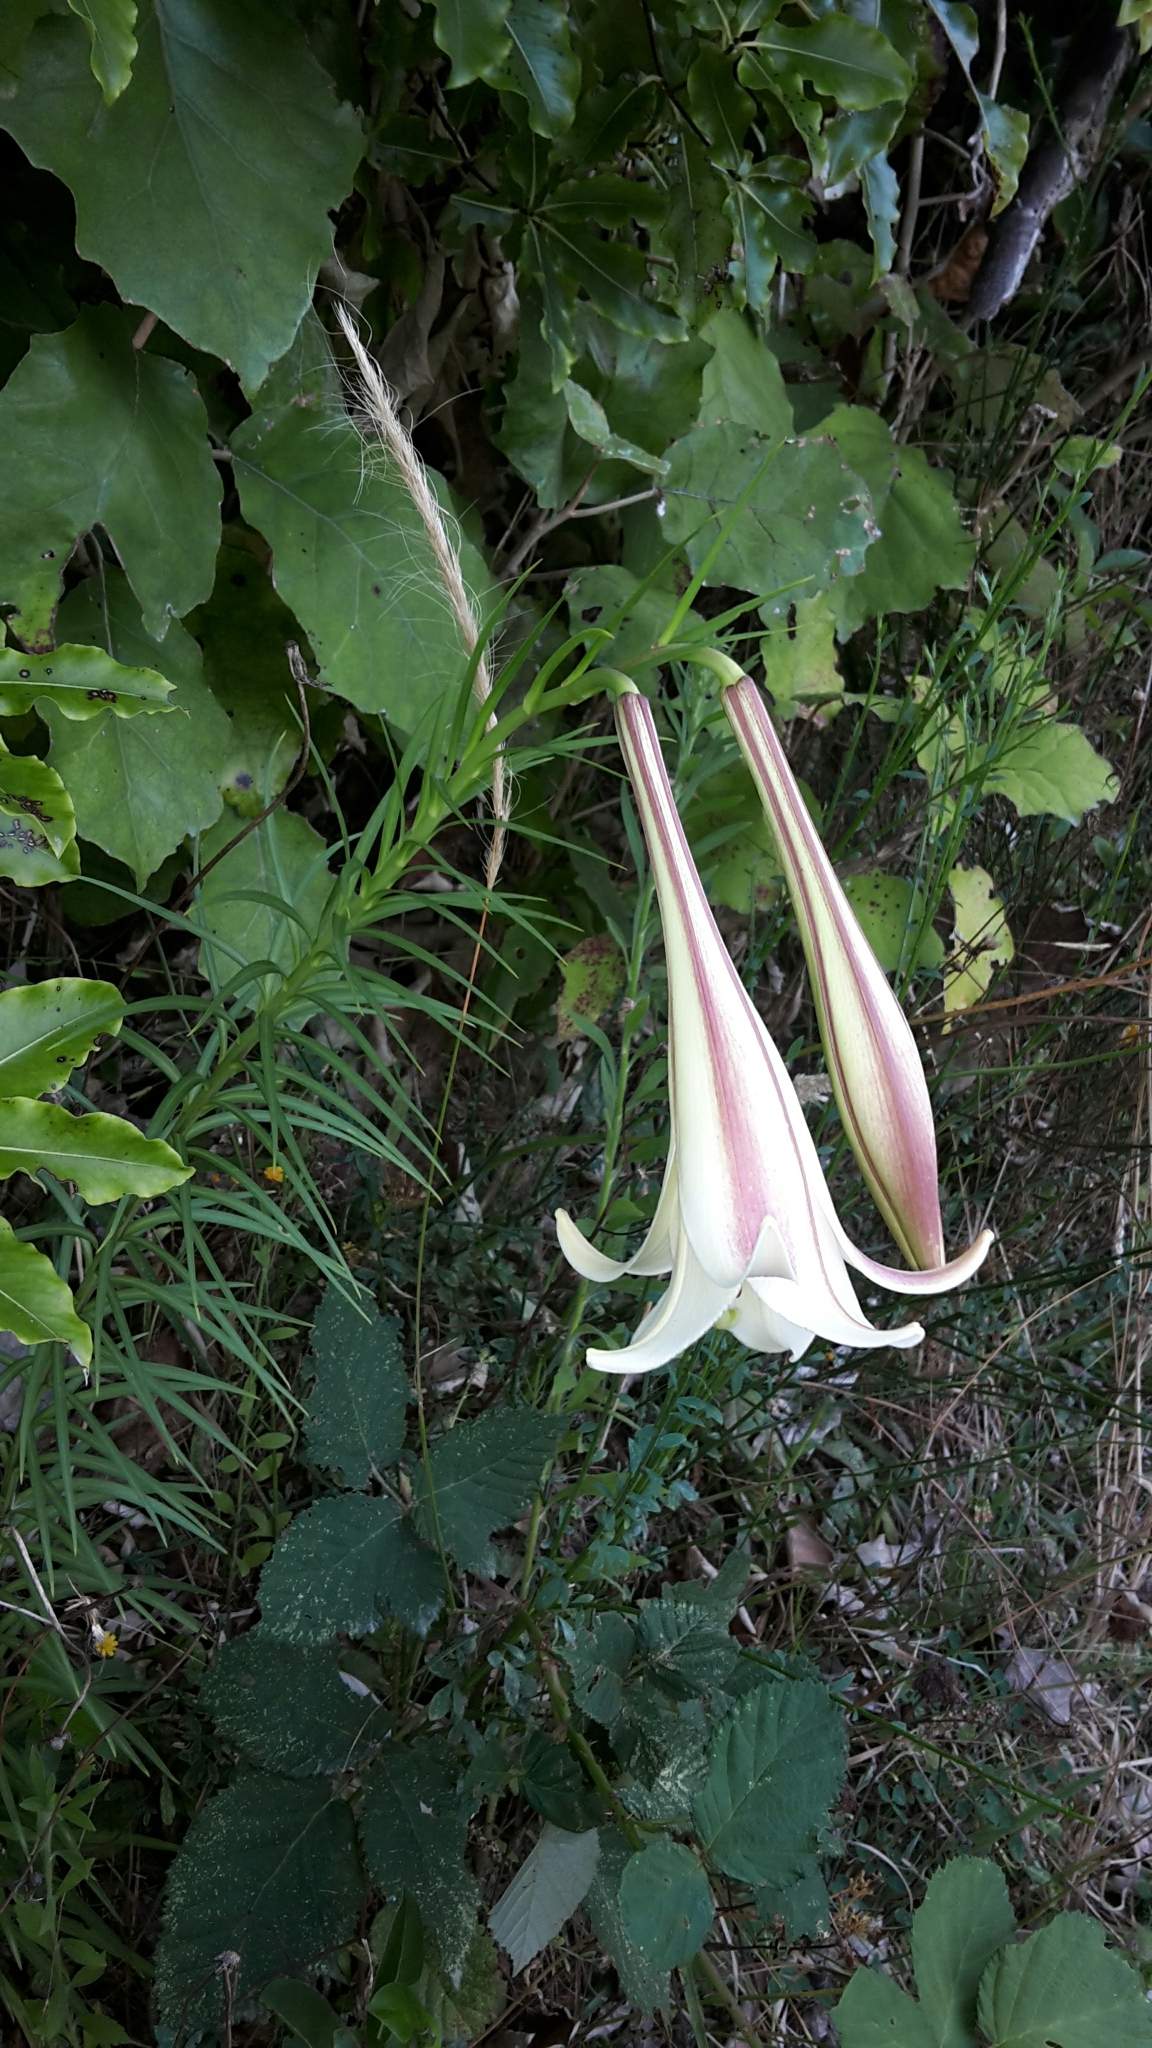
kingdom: Plantae
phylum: Tracheophyta
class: Liliopsida
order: Liliales
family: Liliaceae
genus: Lilium
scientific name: Lilium formosanum
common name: Formosa lily
